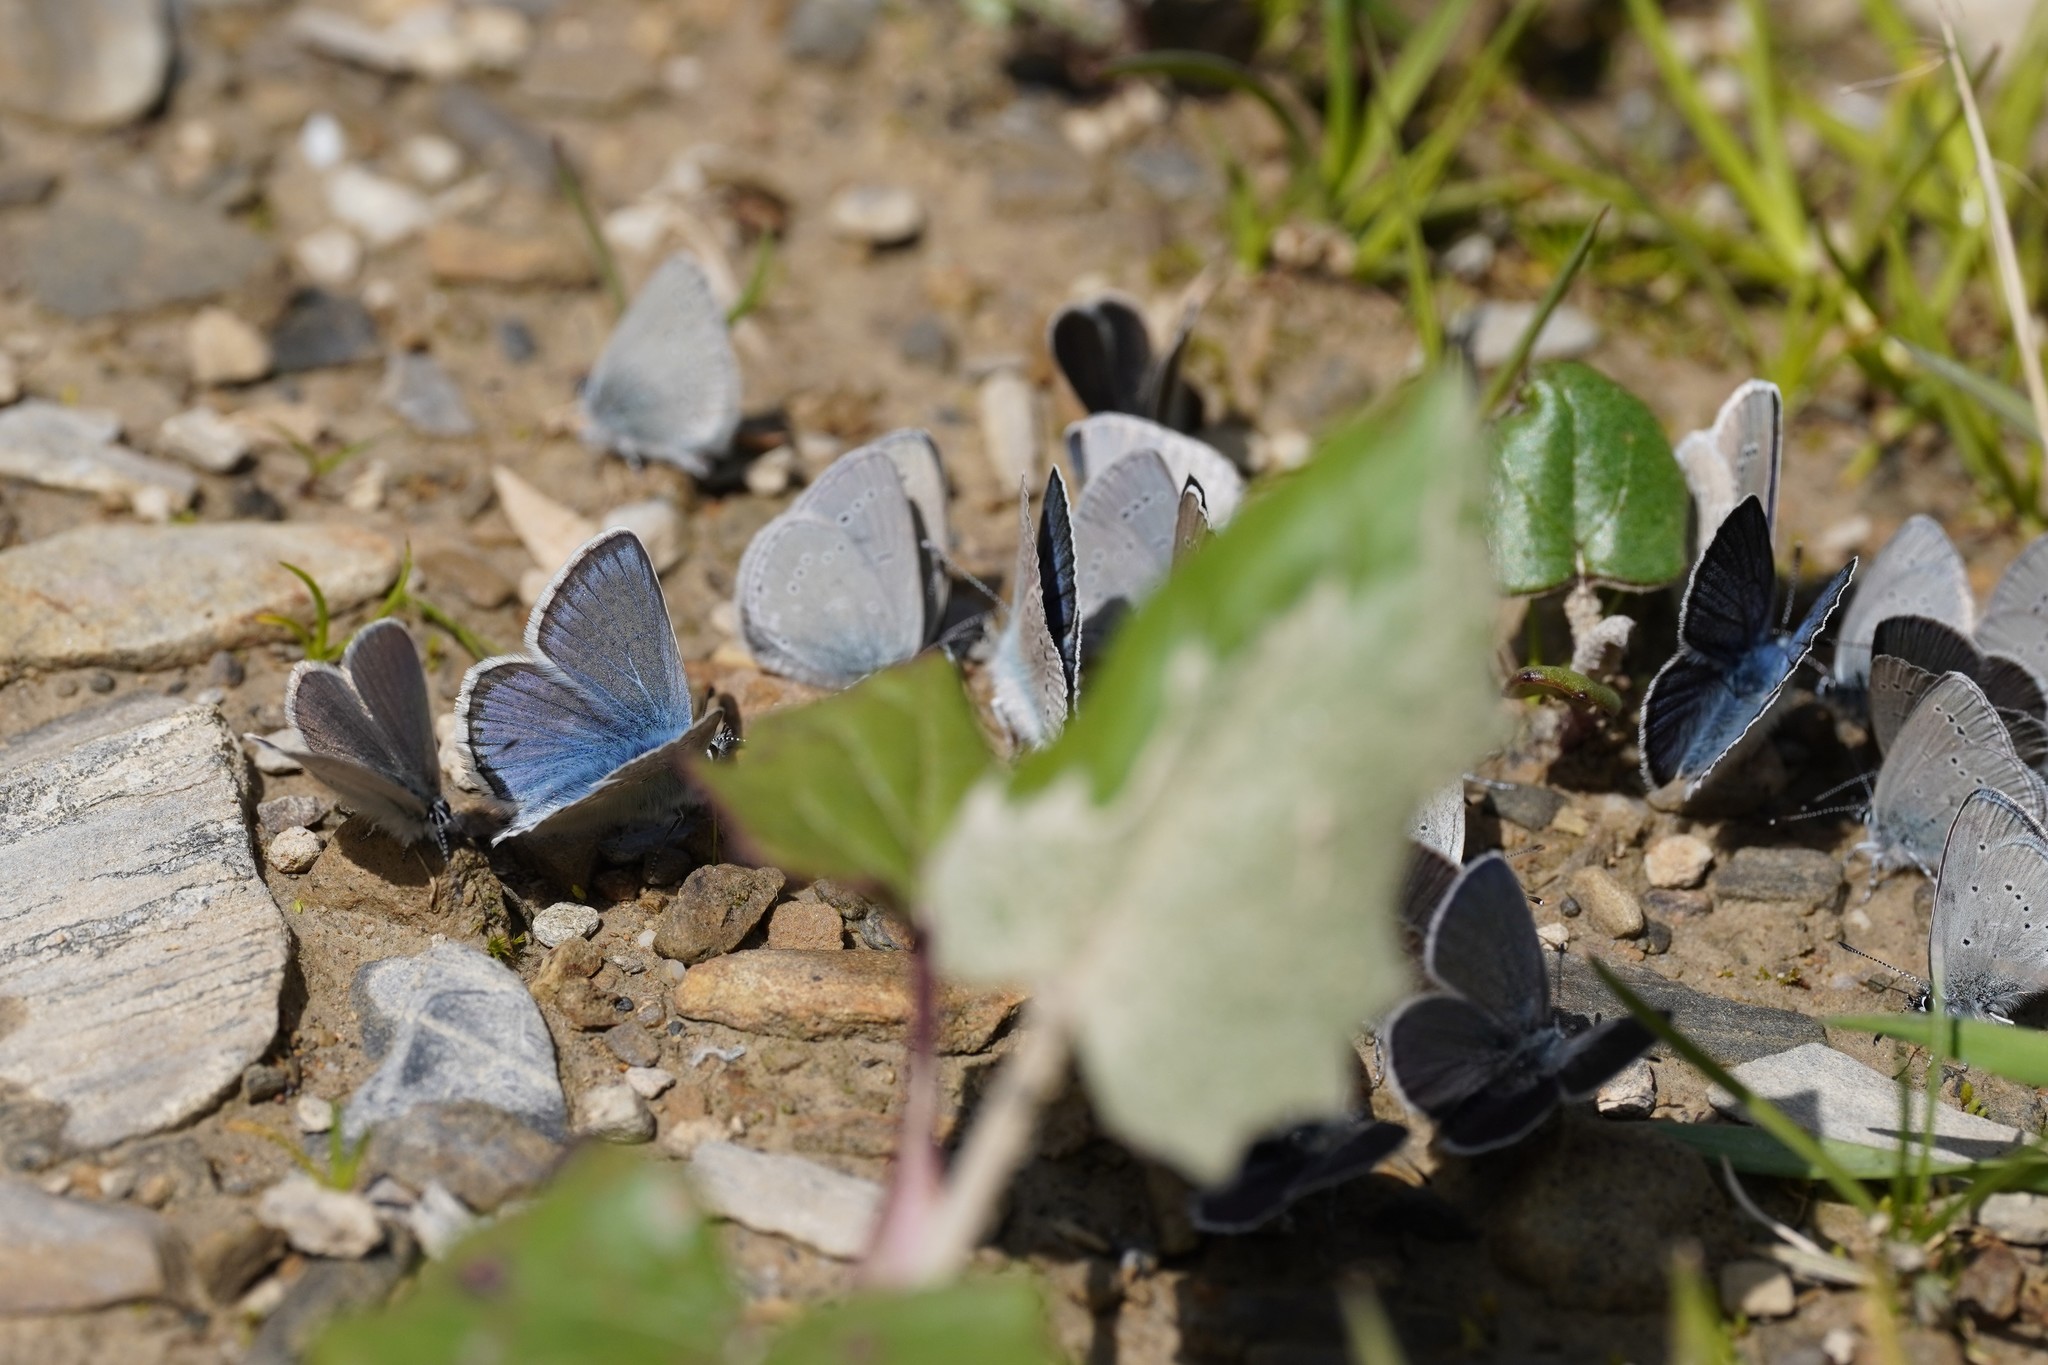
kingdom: Animalia
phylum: Arthropoda
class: Insecta
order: Lepidoptera
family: Lycaenidae
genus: Polyommatus
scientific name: Polyommatus eros
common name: Eros blue
